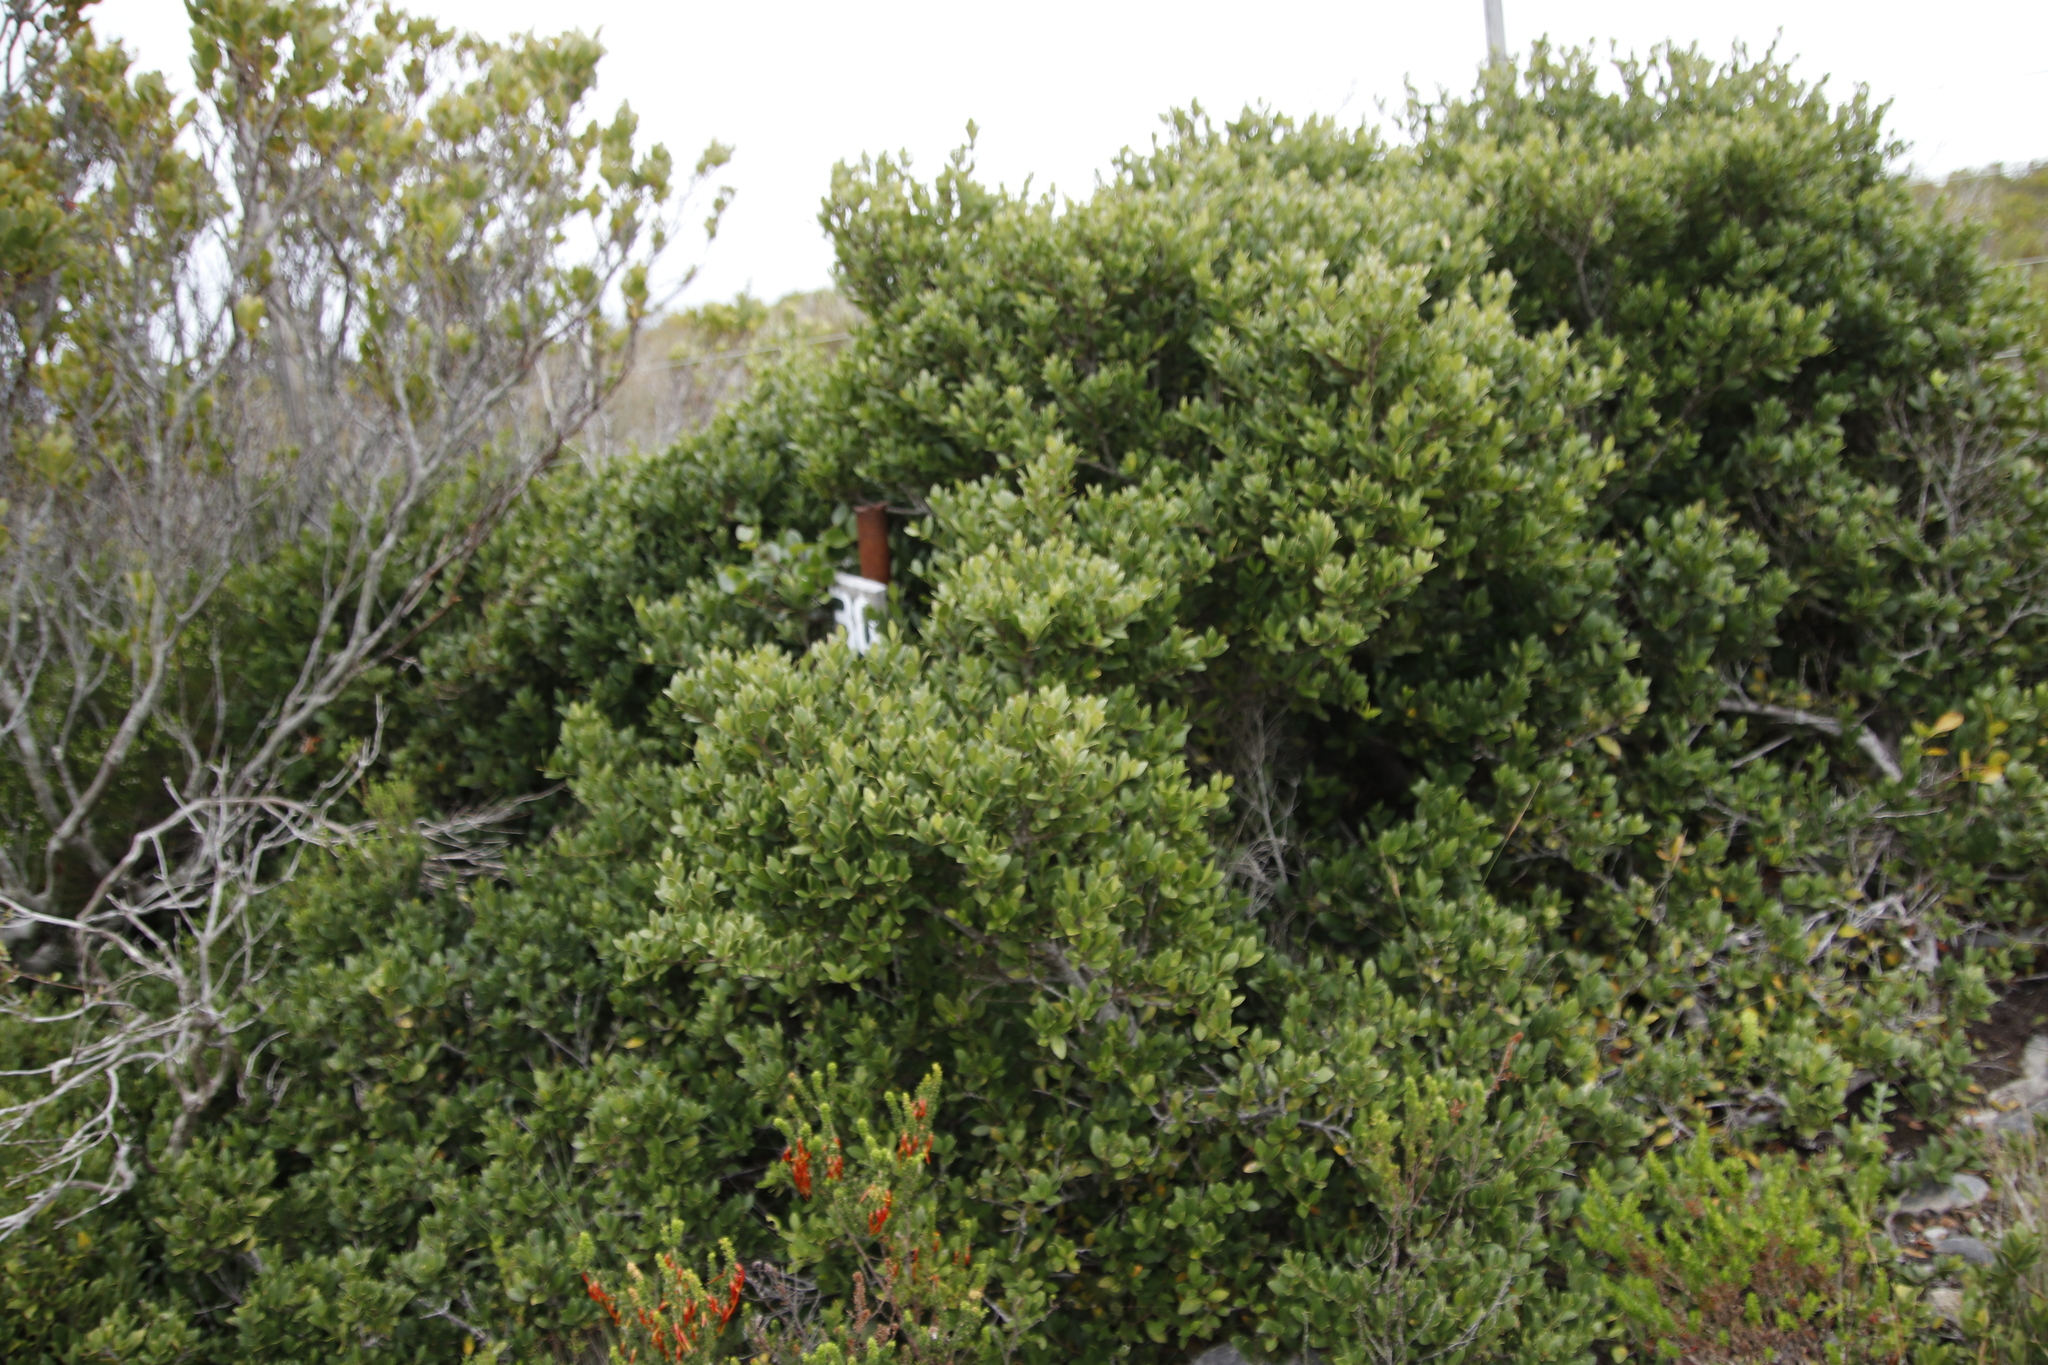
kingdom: Plantae
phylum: Tracheophyta
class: Magnoliopsida
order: Celastrales
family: Celastraceae
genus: Robsonodendron
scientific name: Robsonodendron maritimum
